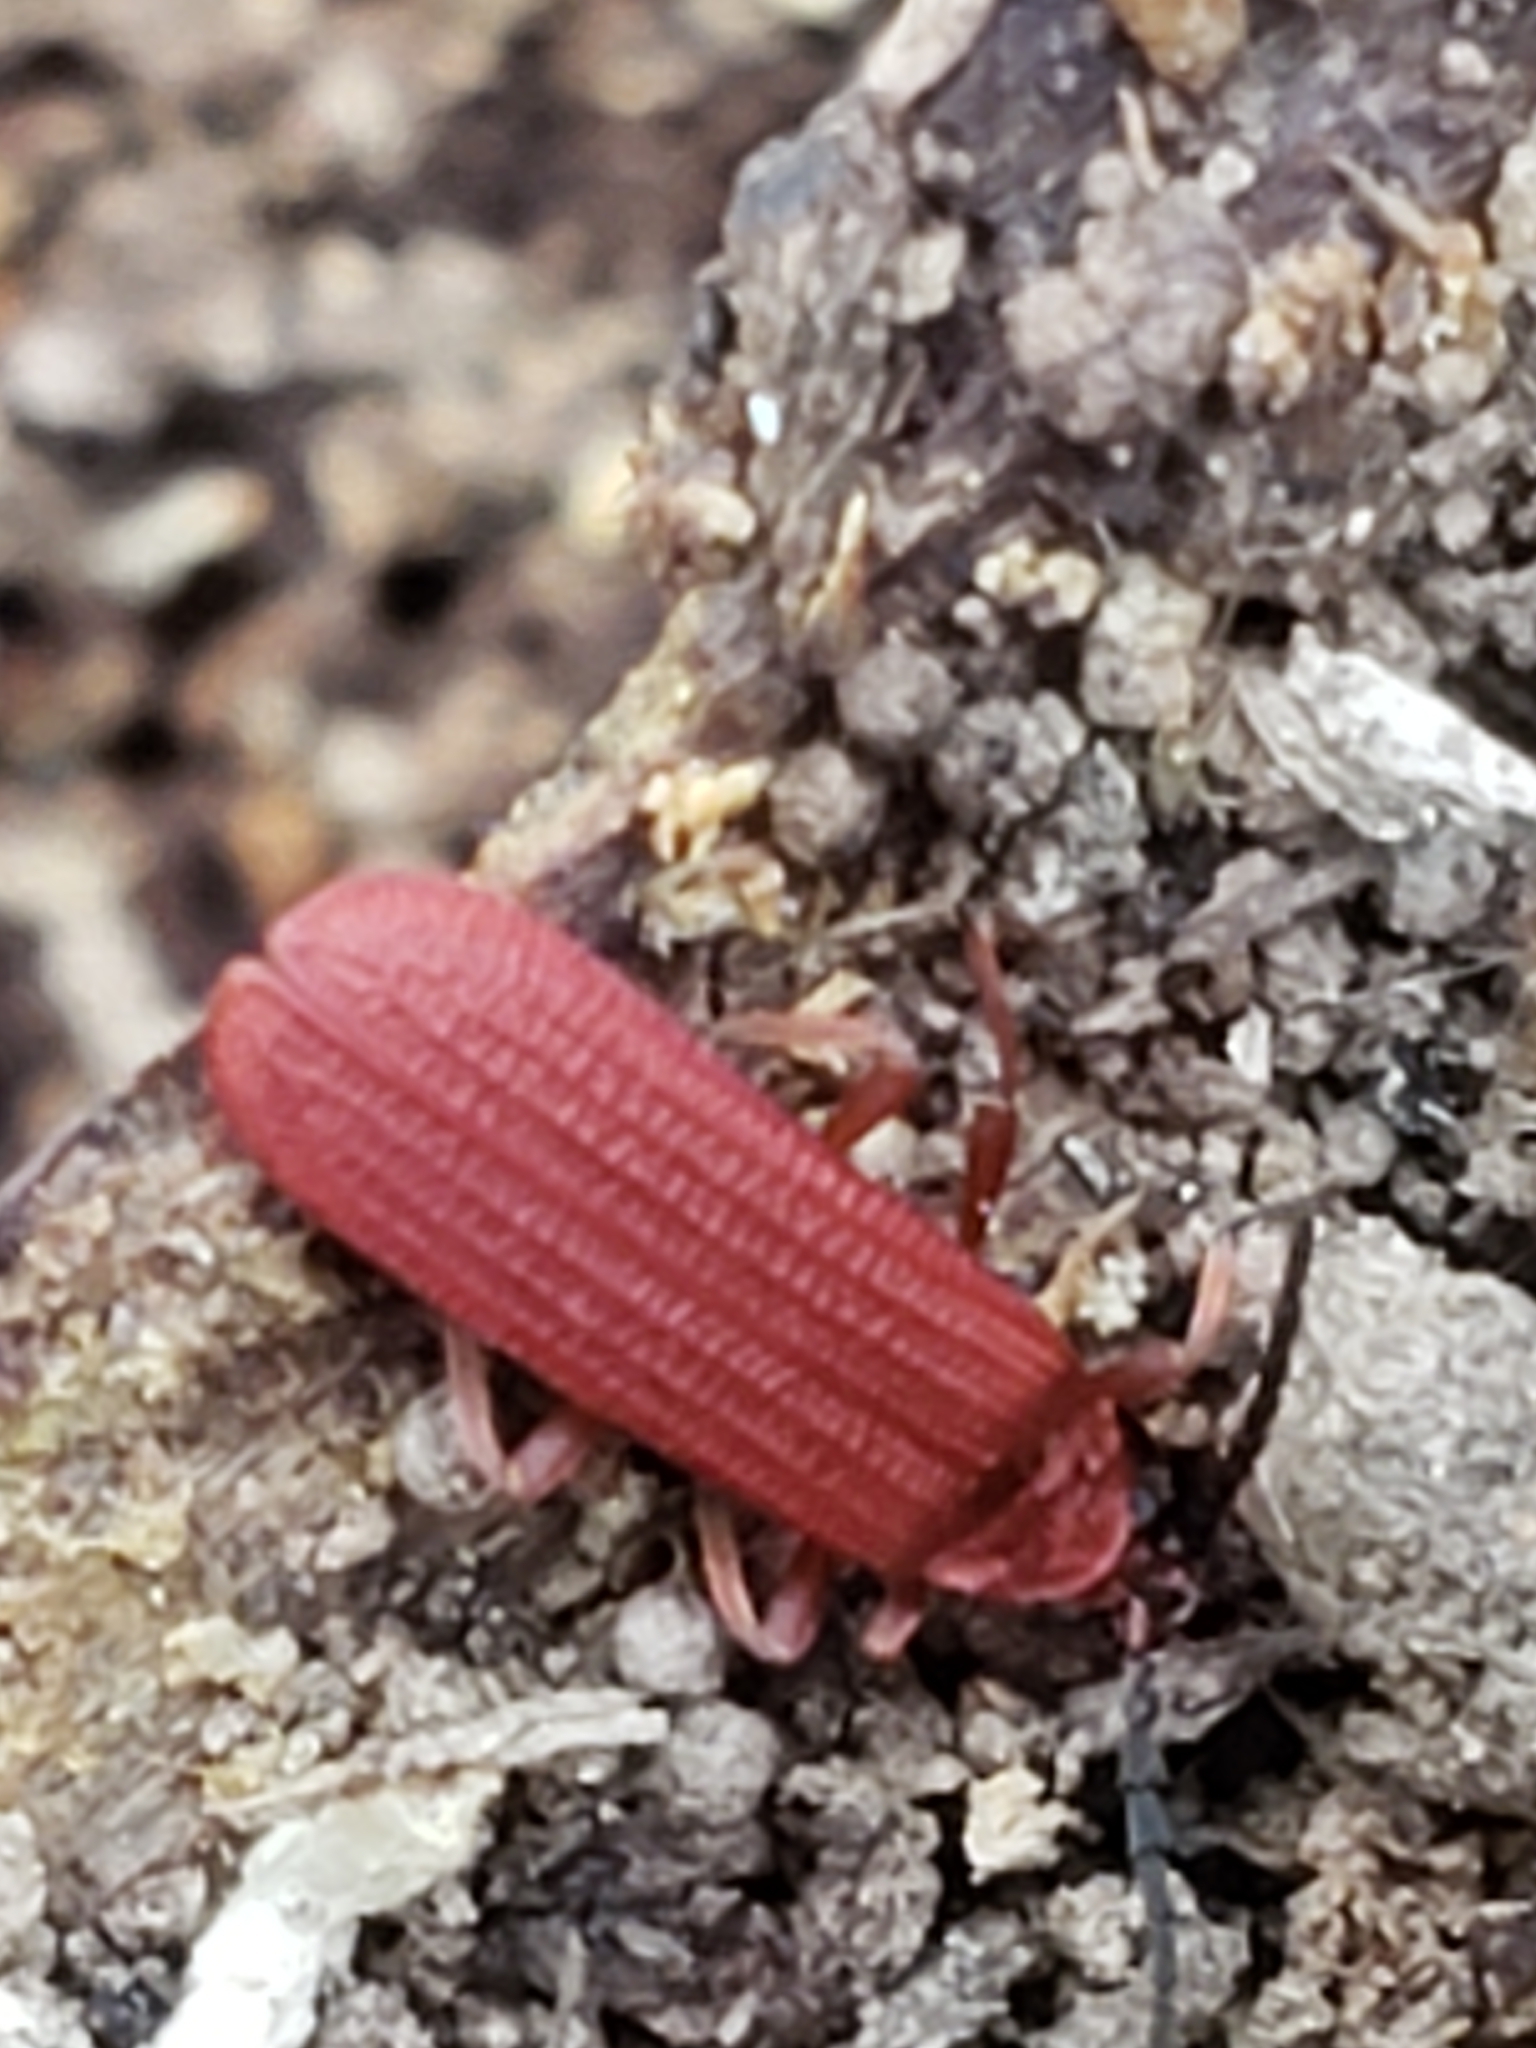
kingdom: Animalia
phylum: Arthropoda
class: Insecta
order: Coleoptera
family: Lycidae
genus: Punicealis
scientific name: Punicealis
